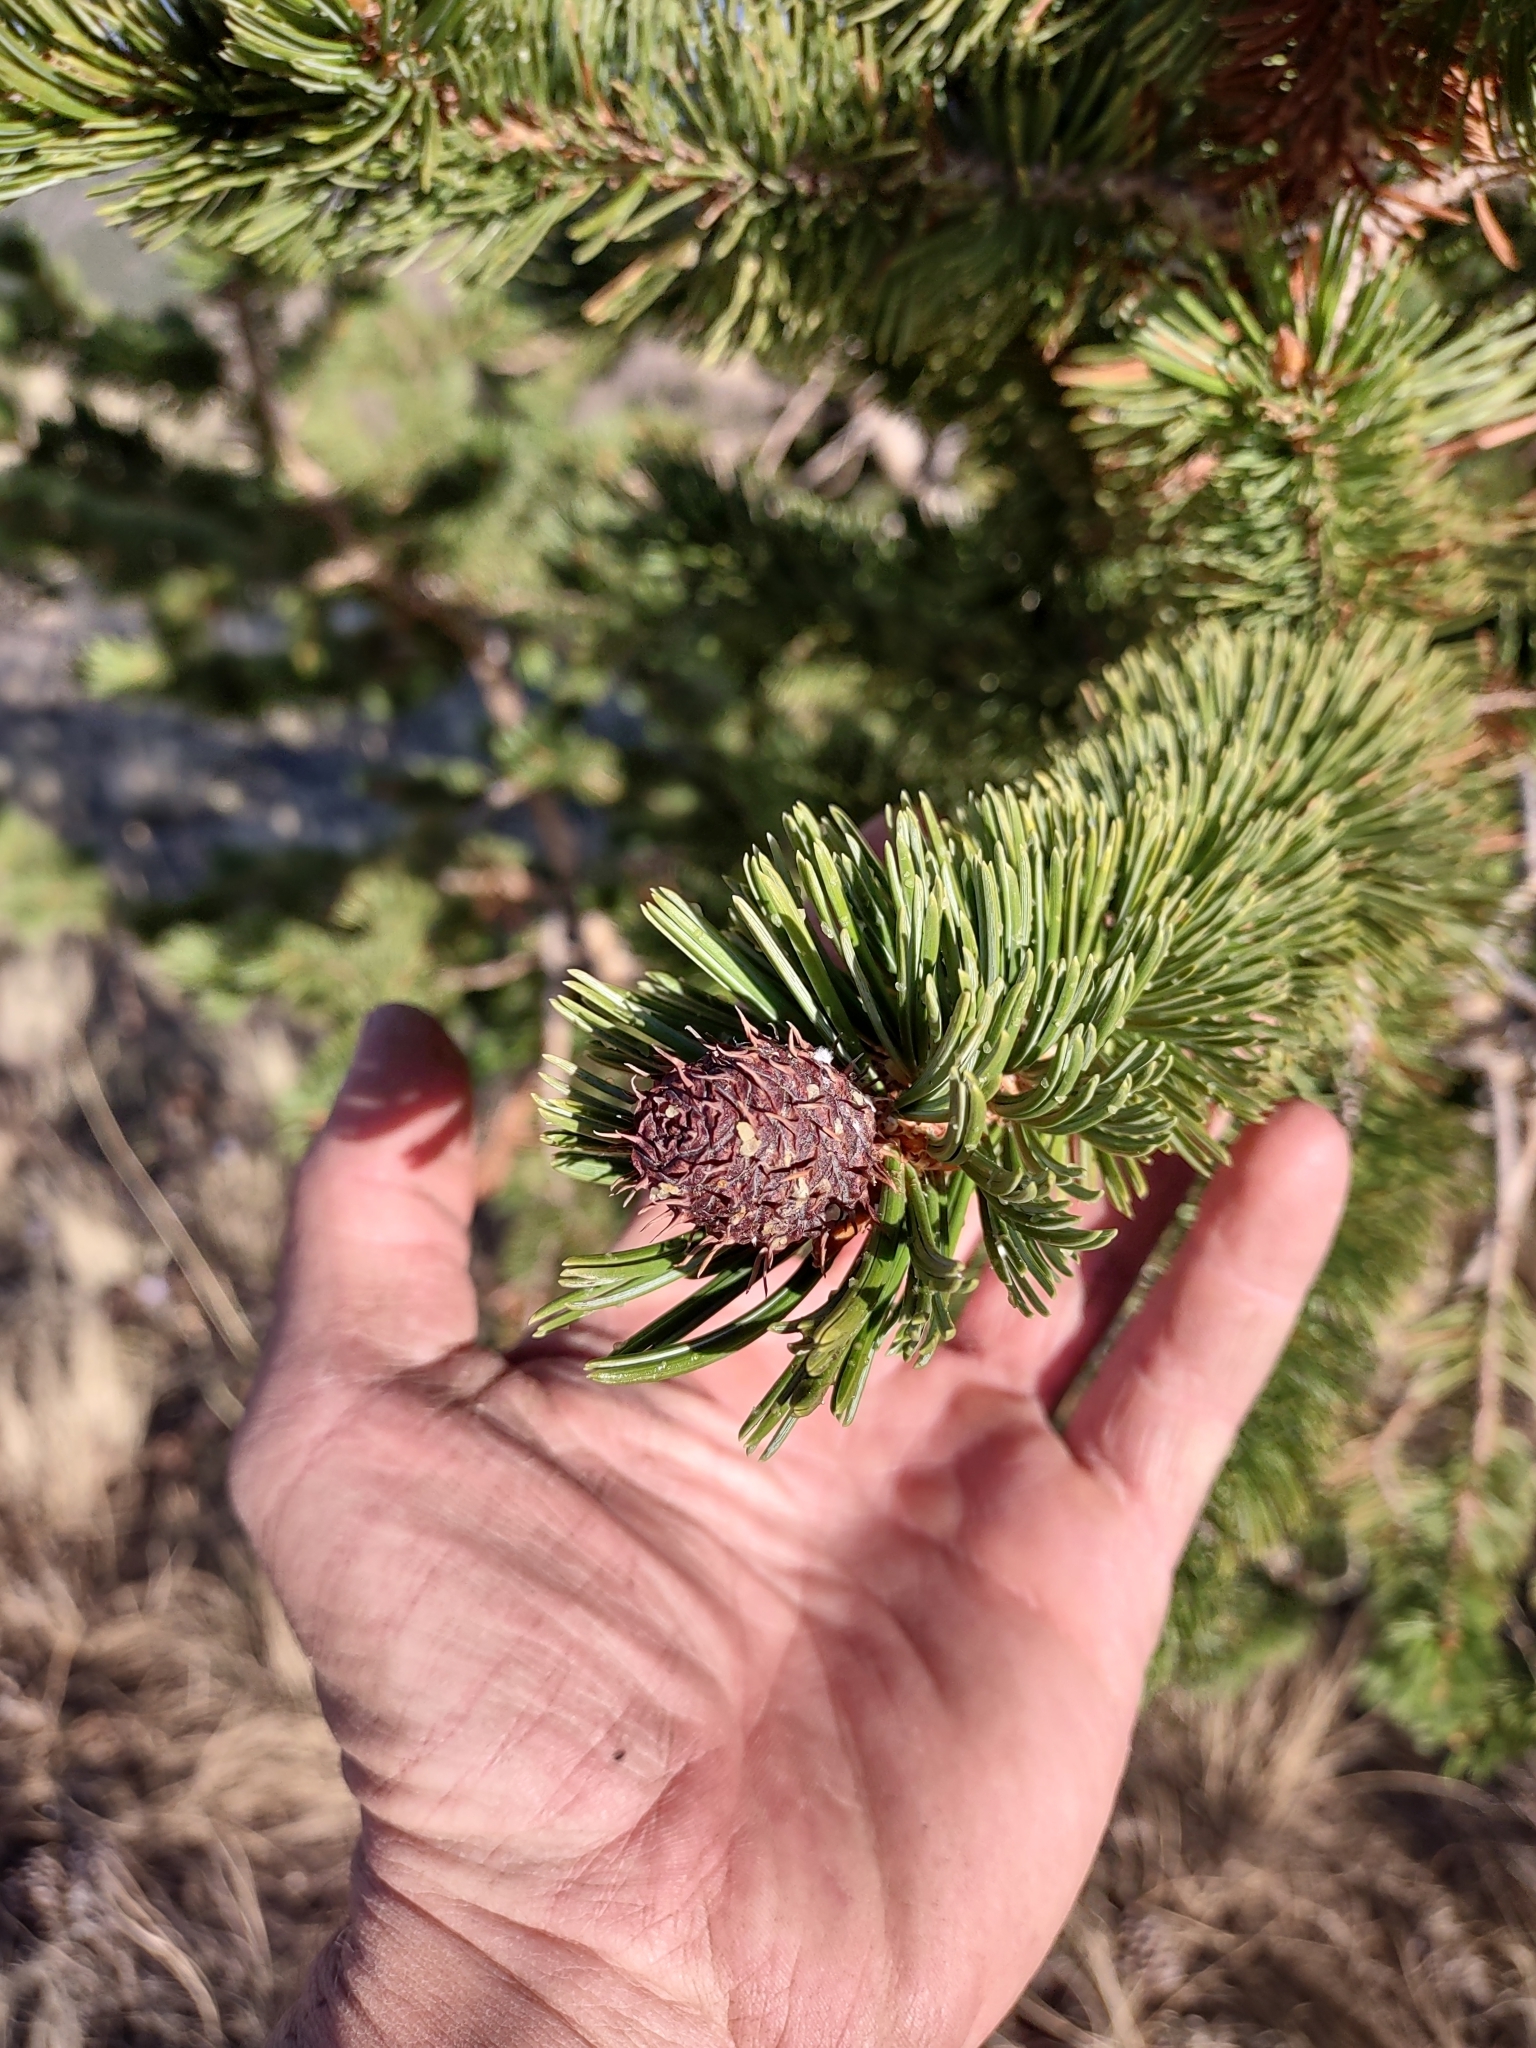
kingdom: Plantae
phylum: Tracheophyta
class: Pinopsida
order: Pinales
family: Pinaceae
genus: Pinus
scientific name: Pinus aristata
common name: Colorado bristlecone pine
